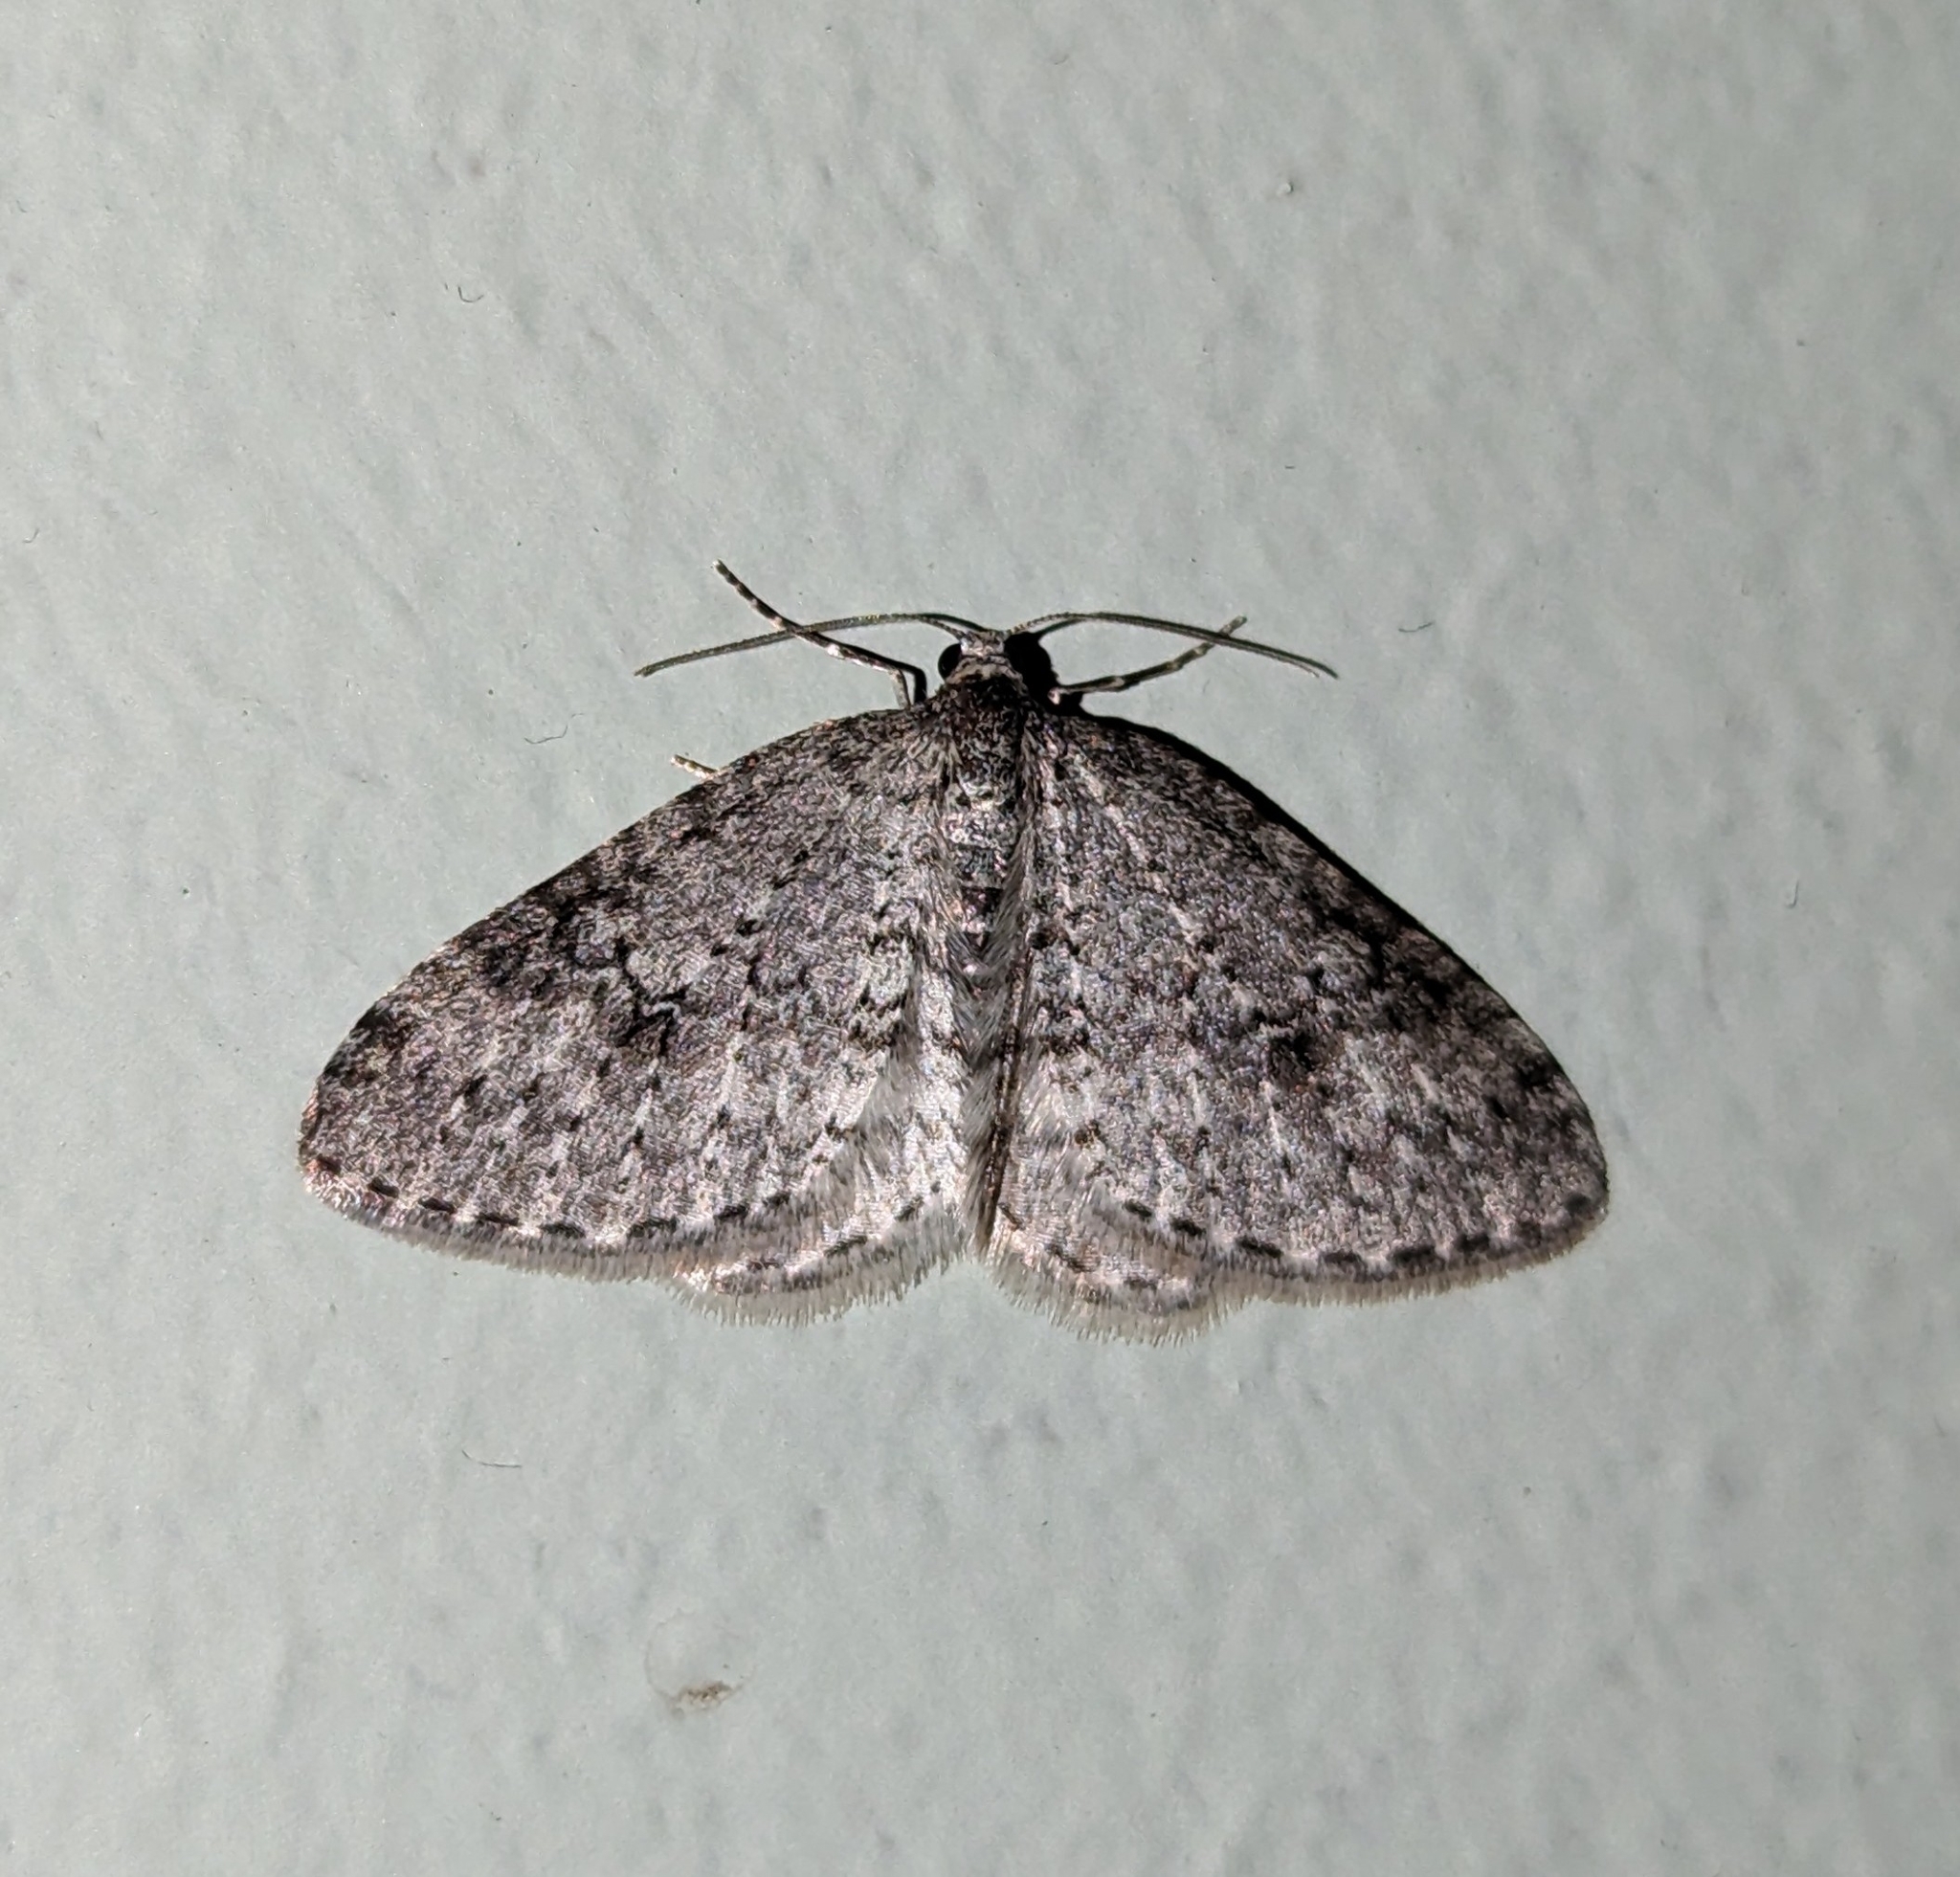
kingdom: Animalia
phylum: Arthropoda
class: Insecta
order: Lepidoptera
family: Geometridae
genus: Venusia
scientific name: Venusia pearsalli
